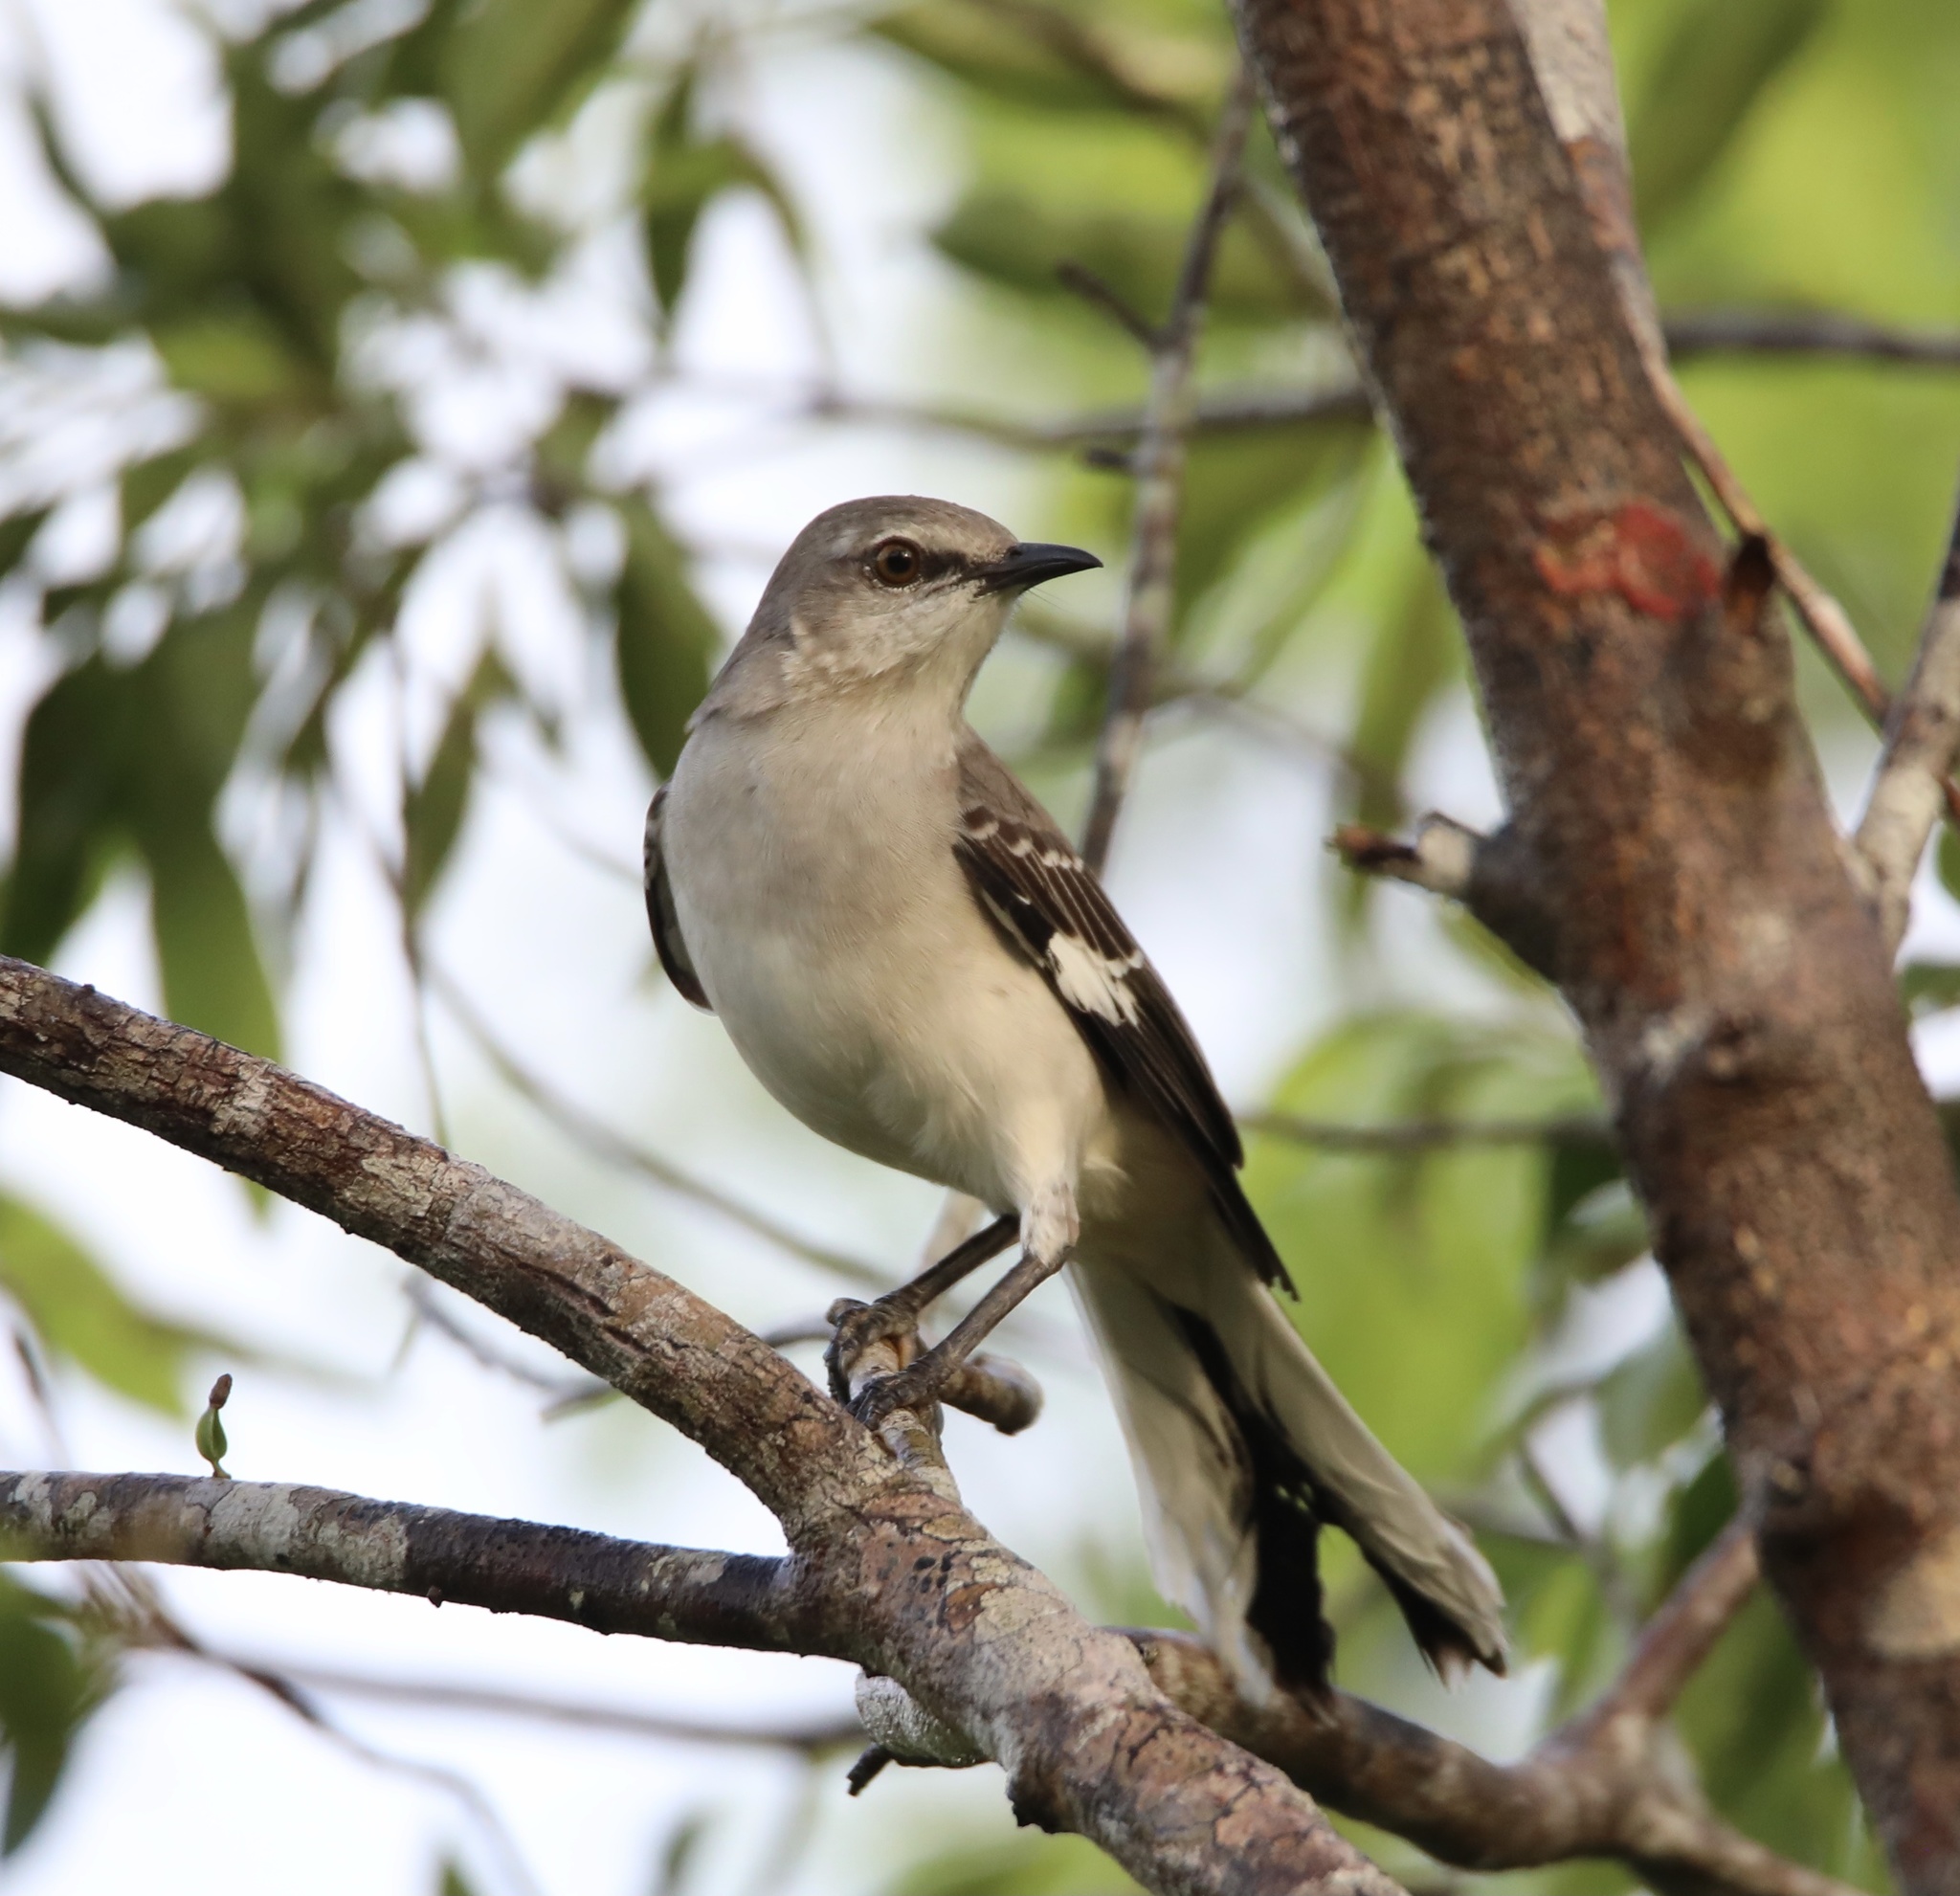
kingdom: Animalia
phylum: Chordata
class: Aves
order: Passeriformes
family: Mimidae
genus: Mimus
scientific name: Mimus polyglottos
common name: Northern mockingbird
